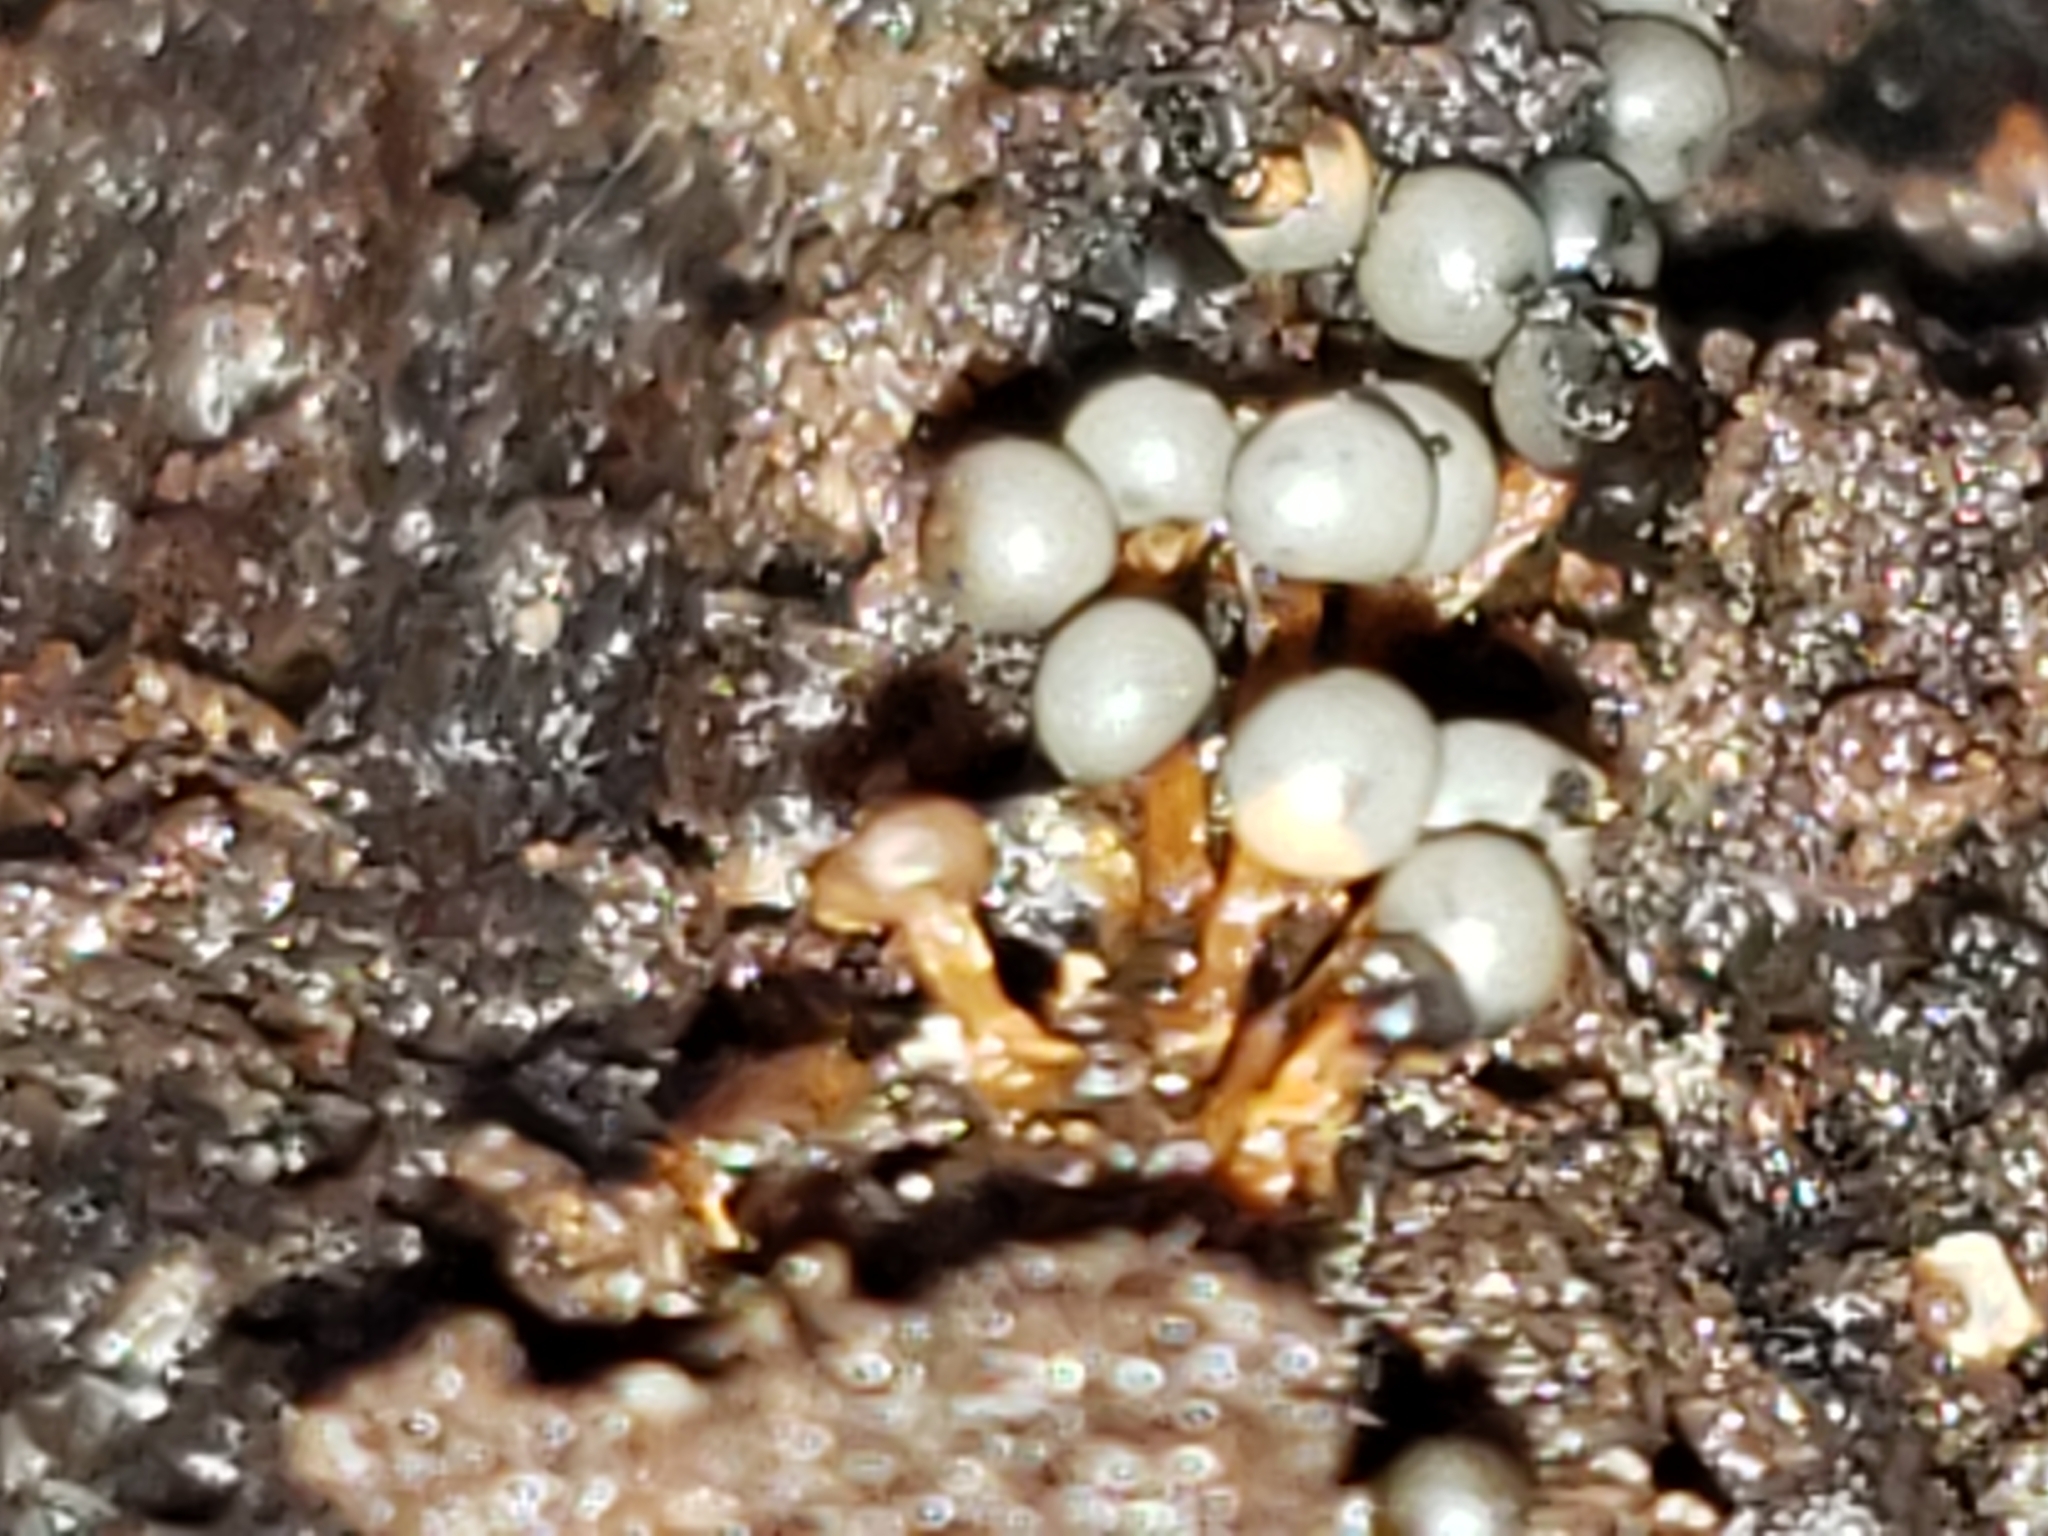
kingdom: Protozoa
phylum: Mycetozoa
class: Myxomycetes
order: Physarales
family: Didymiaceae
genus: Diderma
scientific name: Diderma floriforme
